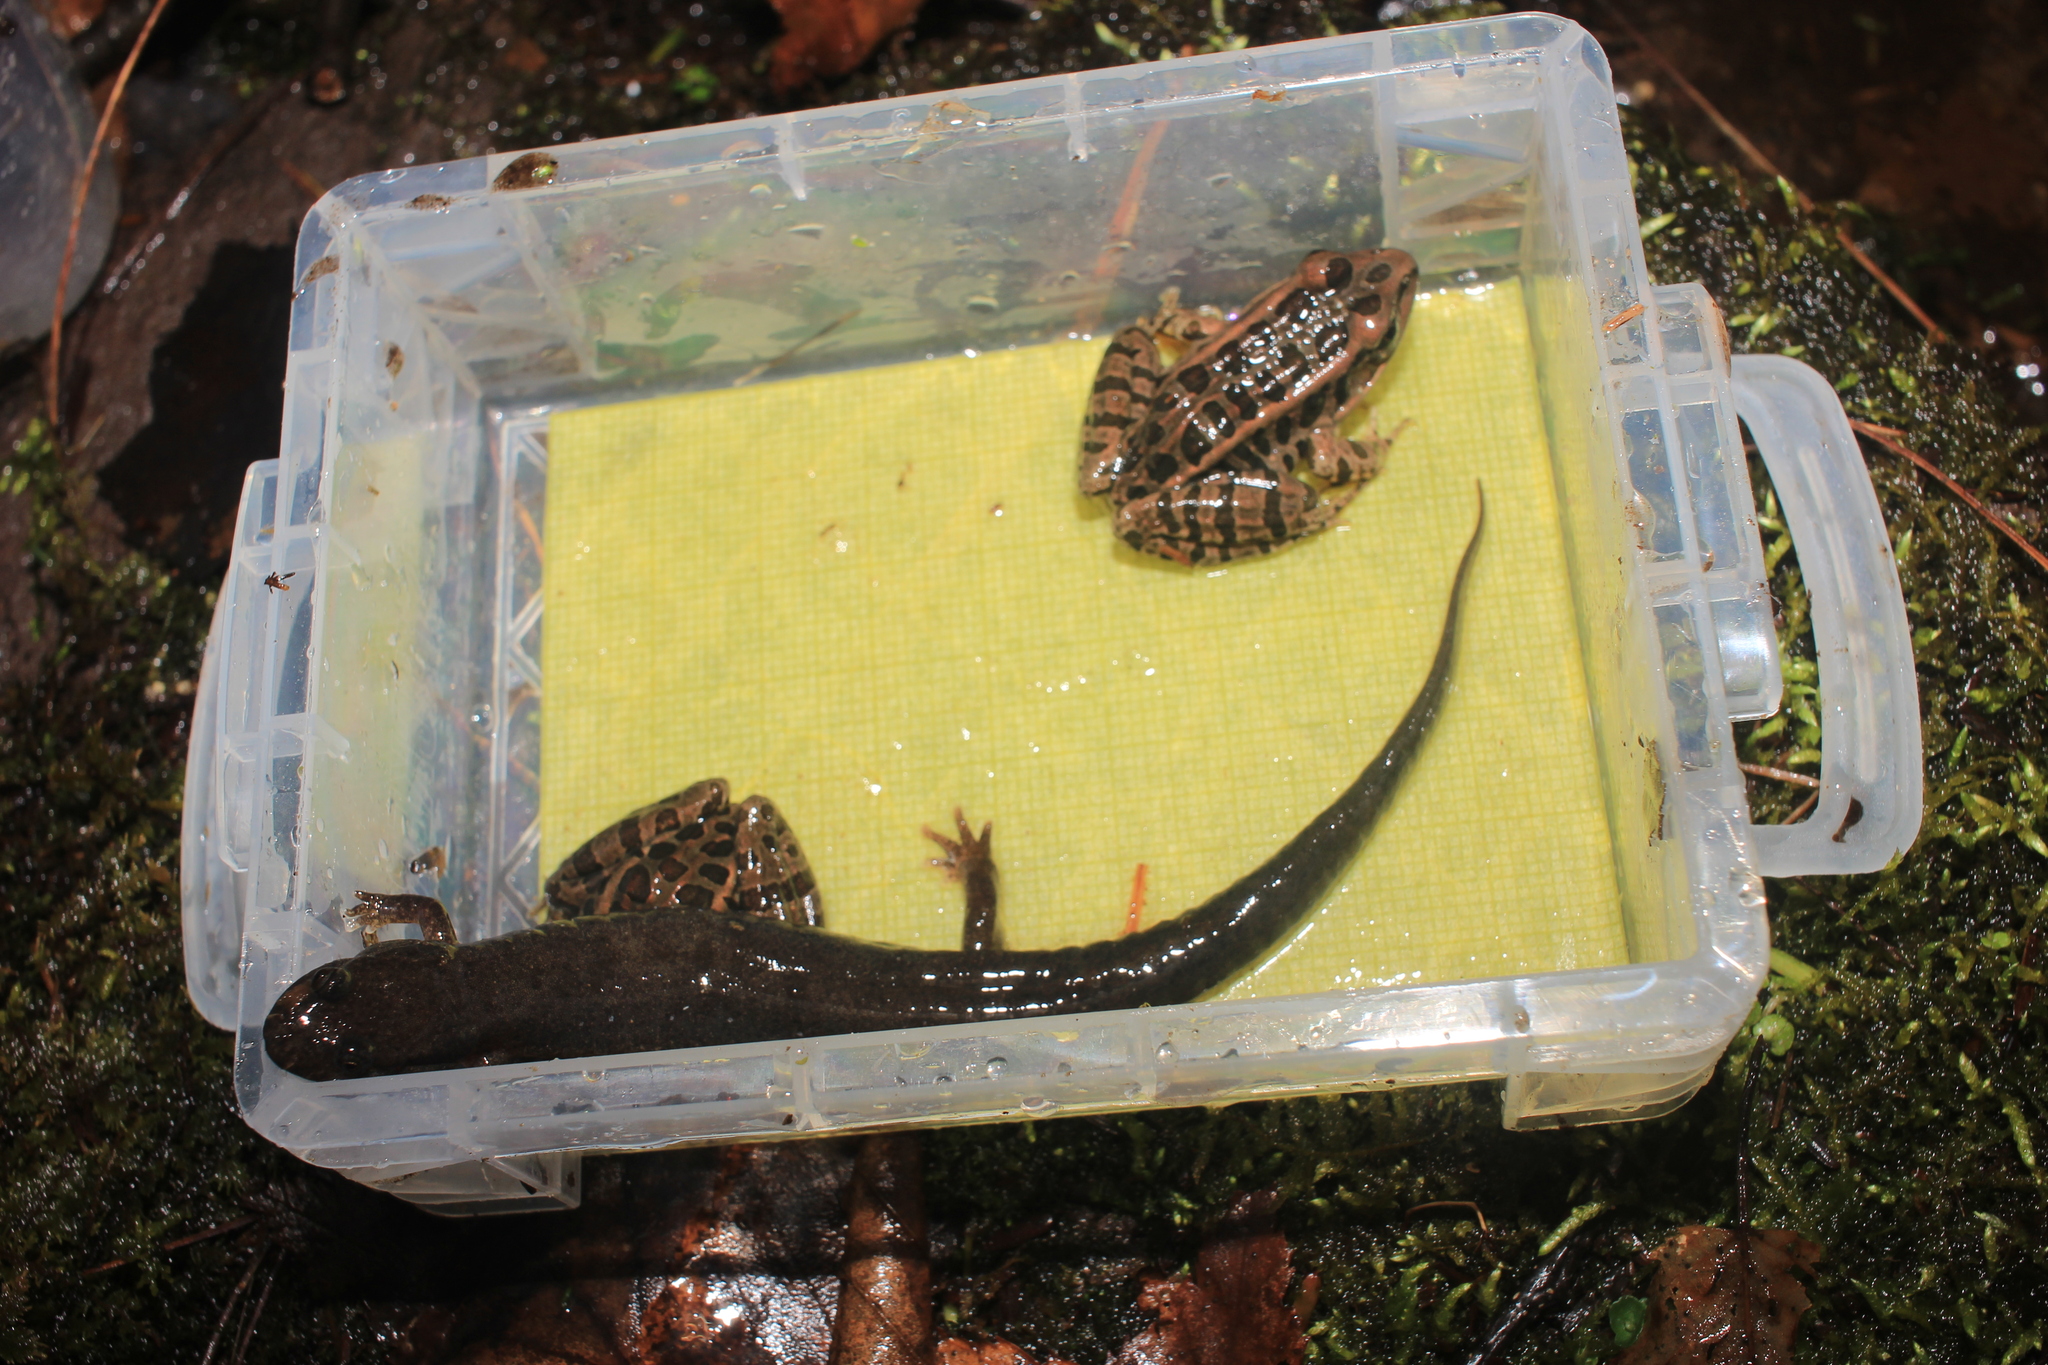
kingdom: Animalia
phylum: Chordata
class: Amphibia
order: Anura
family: Ranidae
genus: Lithobates
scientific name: Lithobates palustris
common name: Pickerel frog
